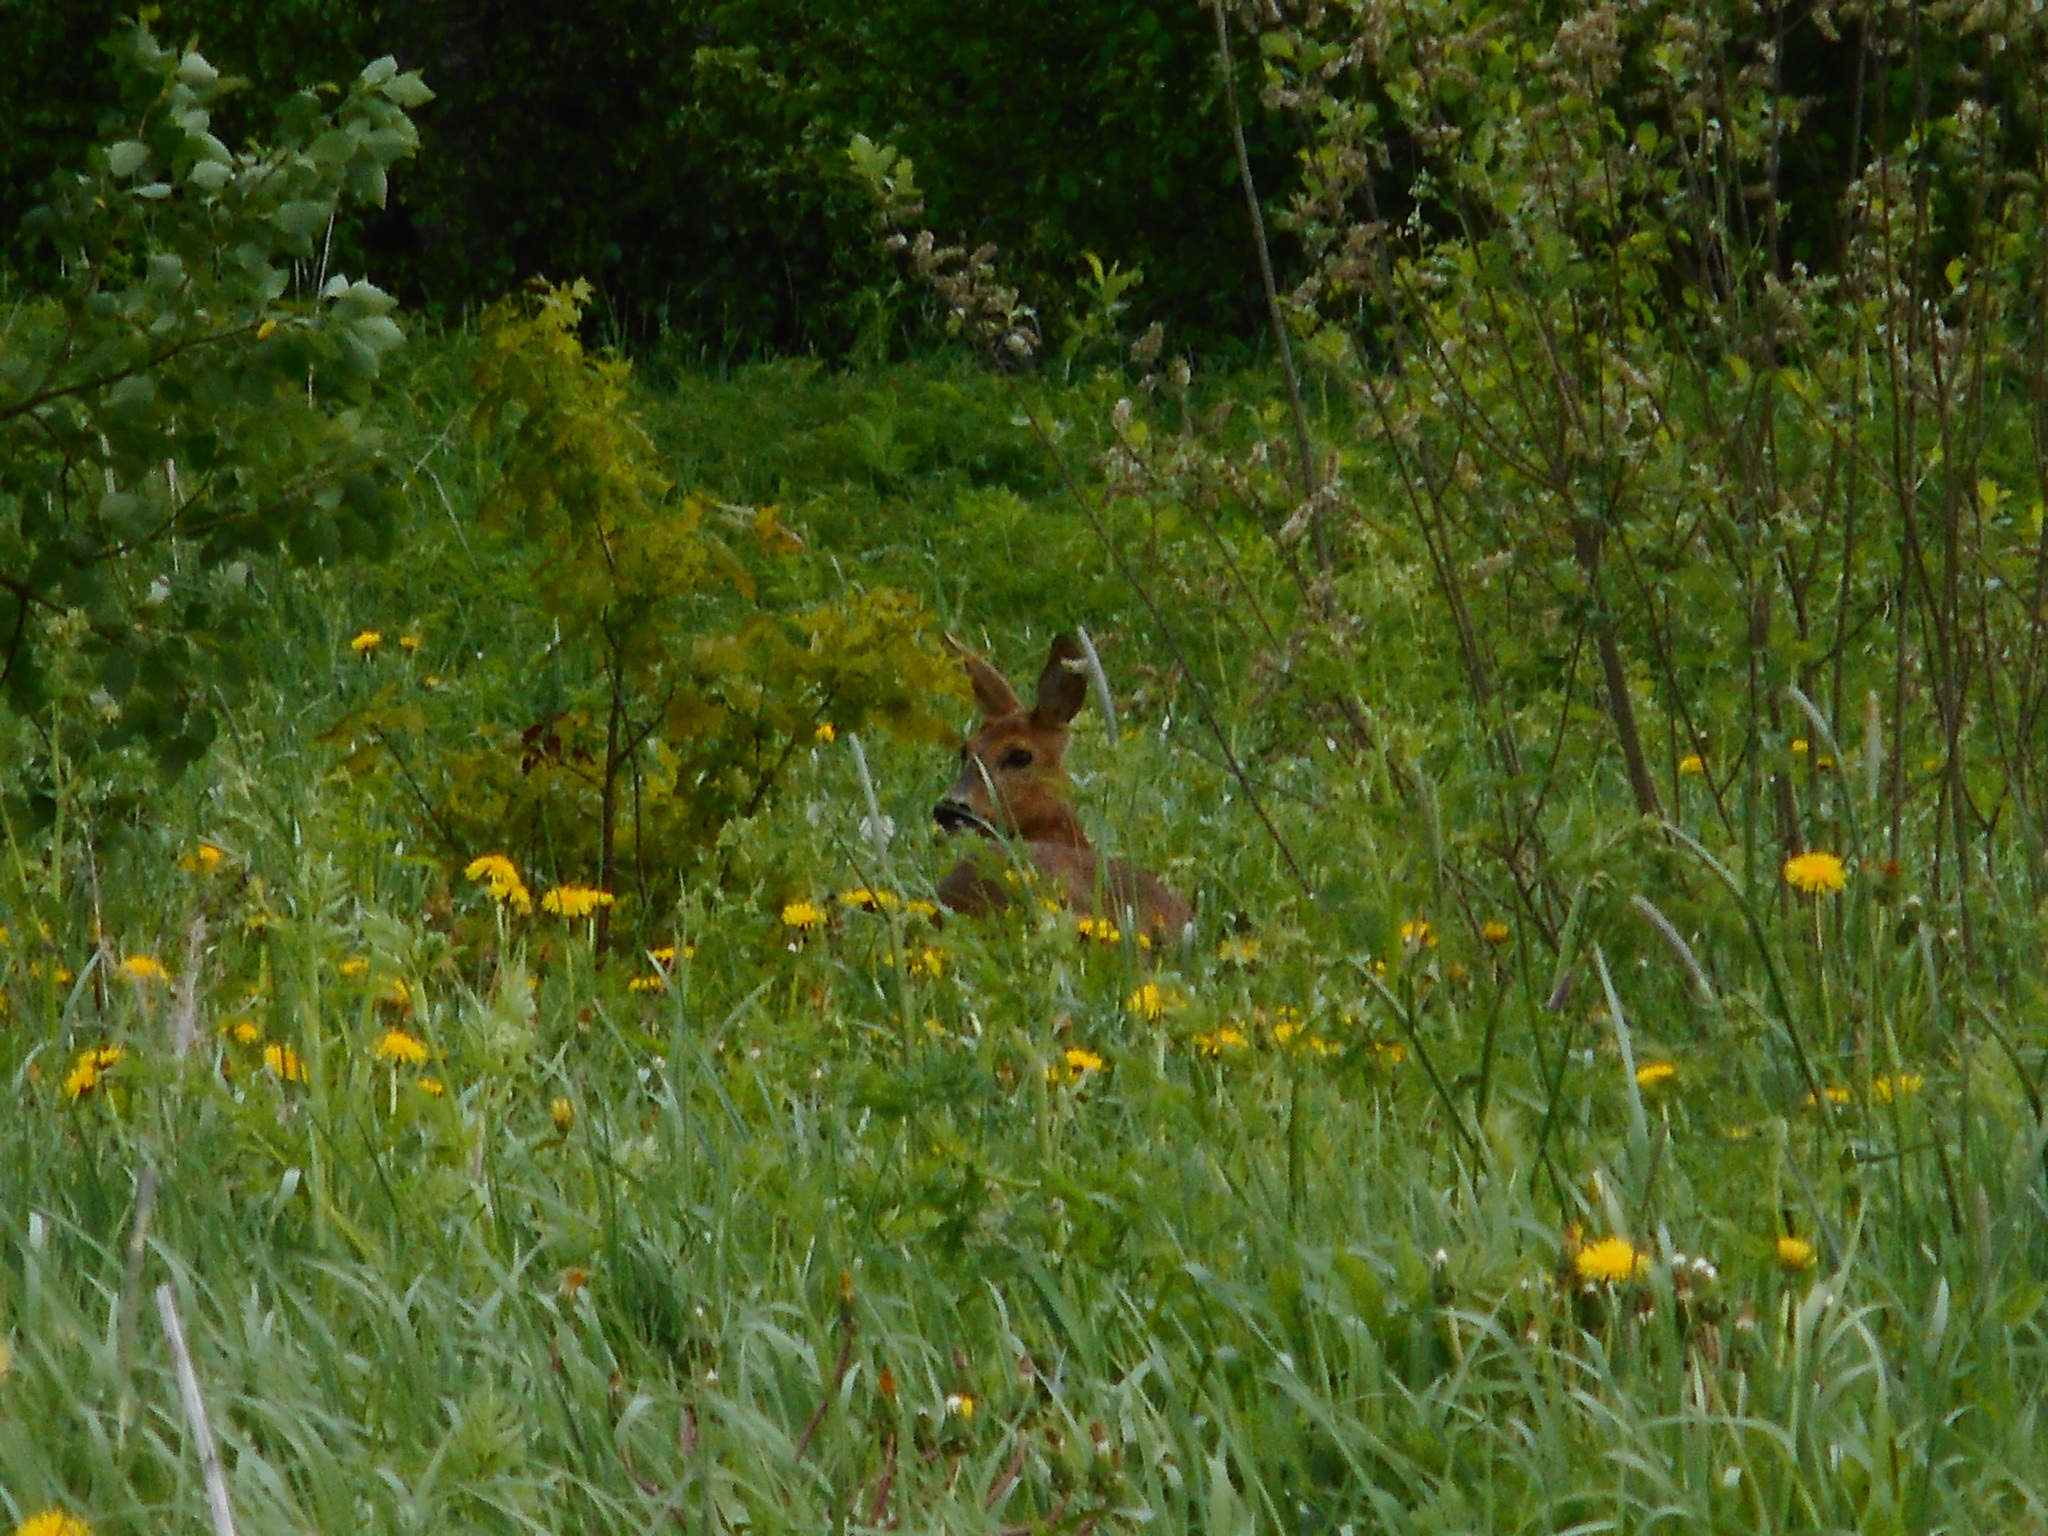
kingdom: Animalia
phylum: Chordata
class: Mammalia
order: Artiodactyla
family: Cervidae
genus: Capreolus
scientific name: Capreolus capreolus
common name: Western roe deer
